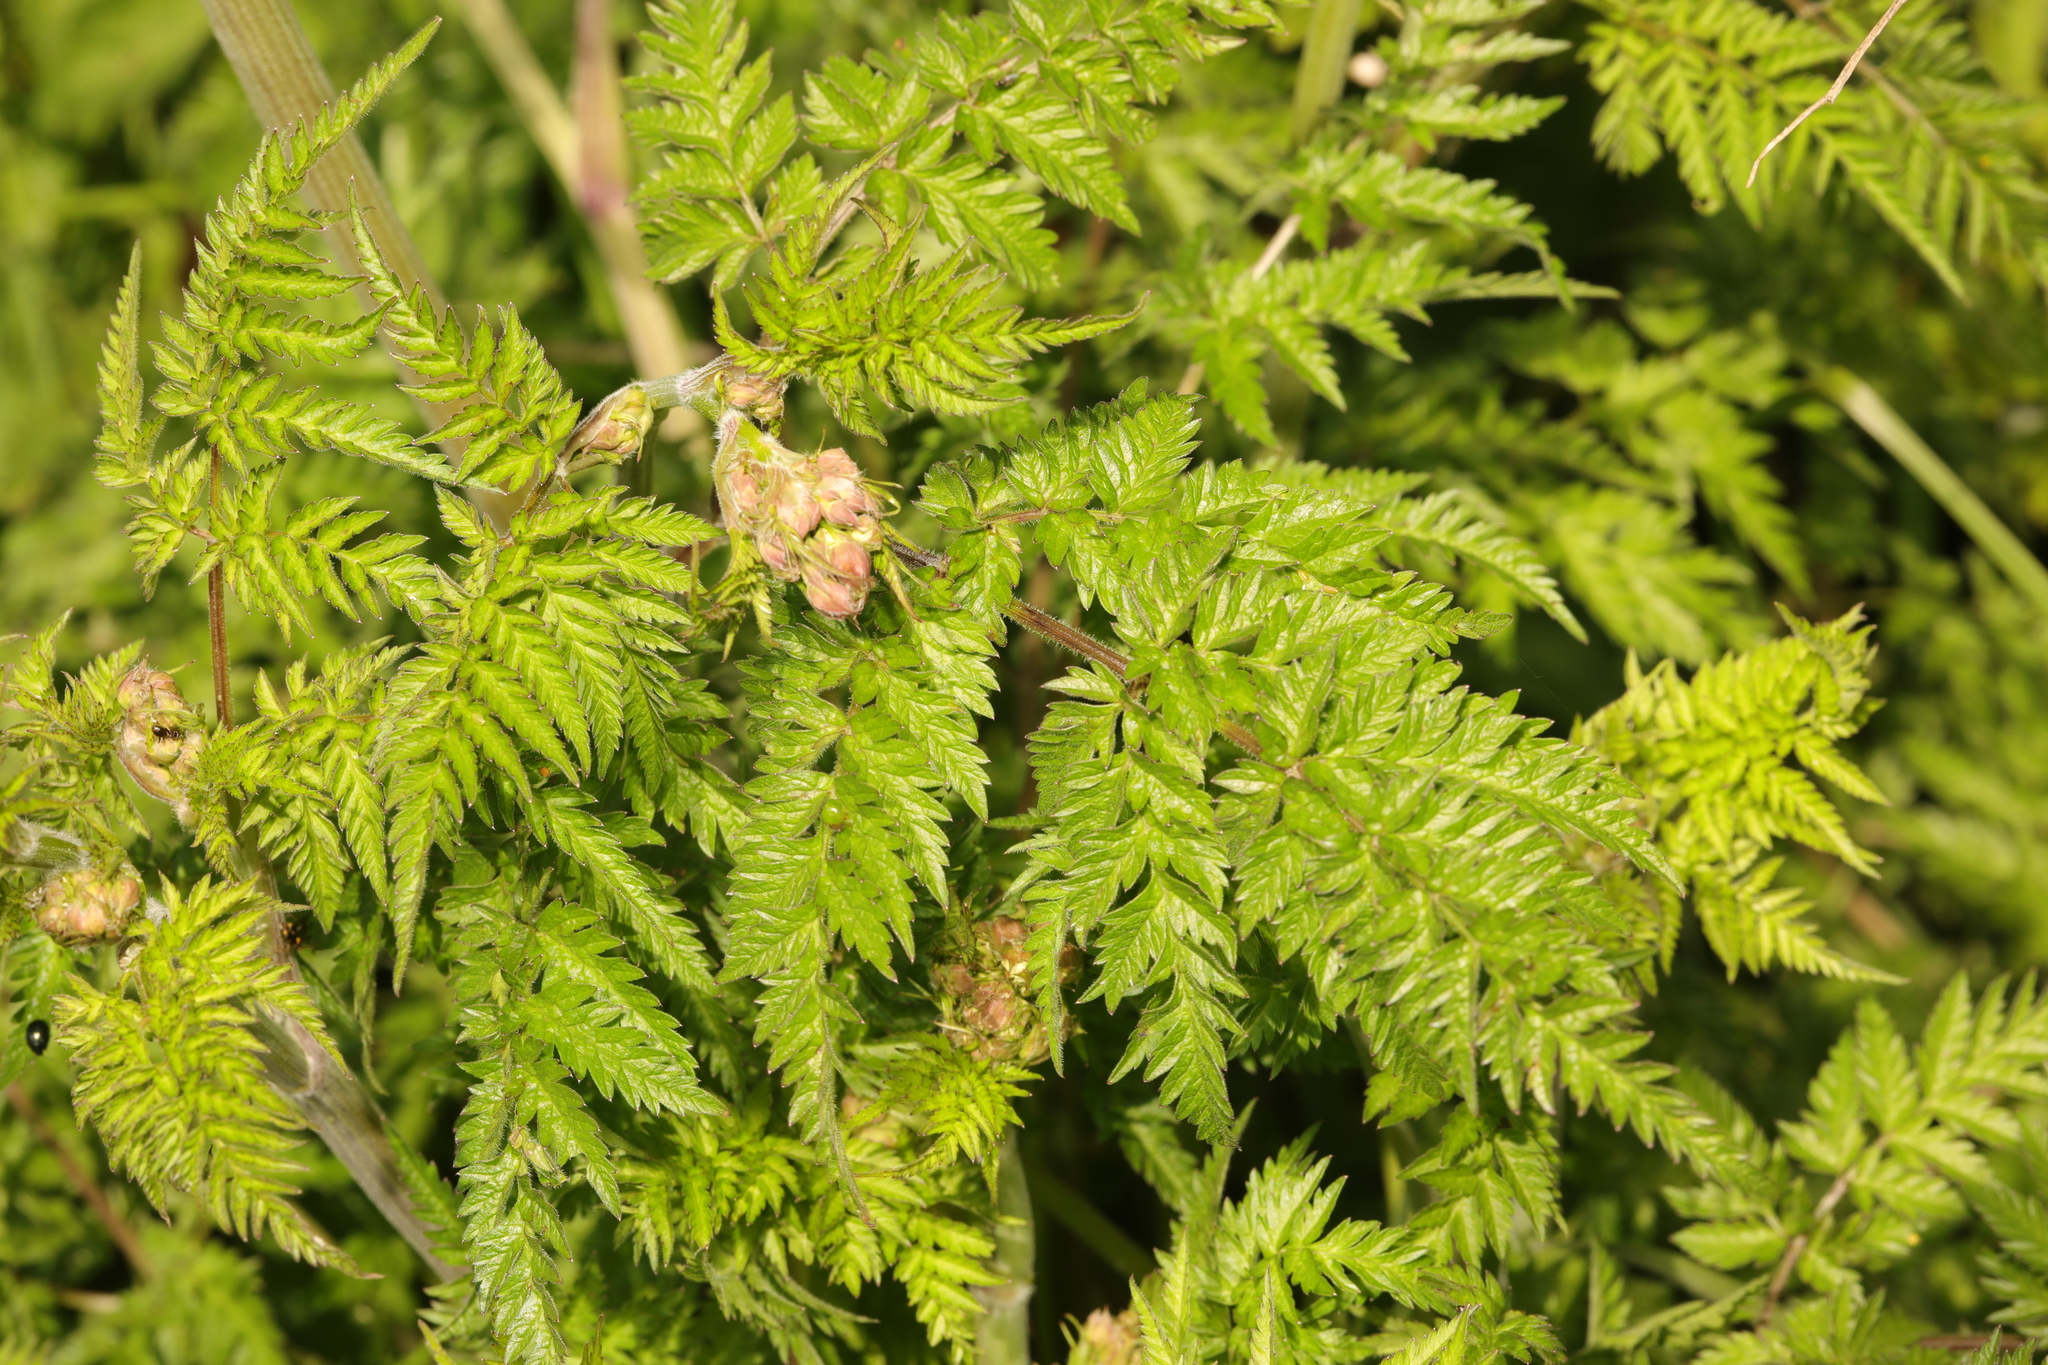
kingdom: Plantae
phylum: Tracheophyta
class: Magnoliopsida
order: Apiales
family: Apiaceae
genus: Anthriscus
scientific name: Anthriscus sylvestris
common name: Cow parsley
